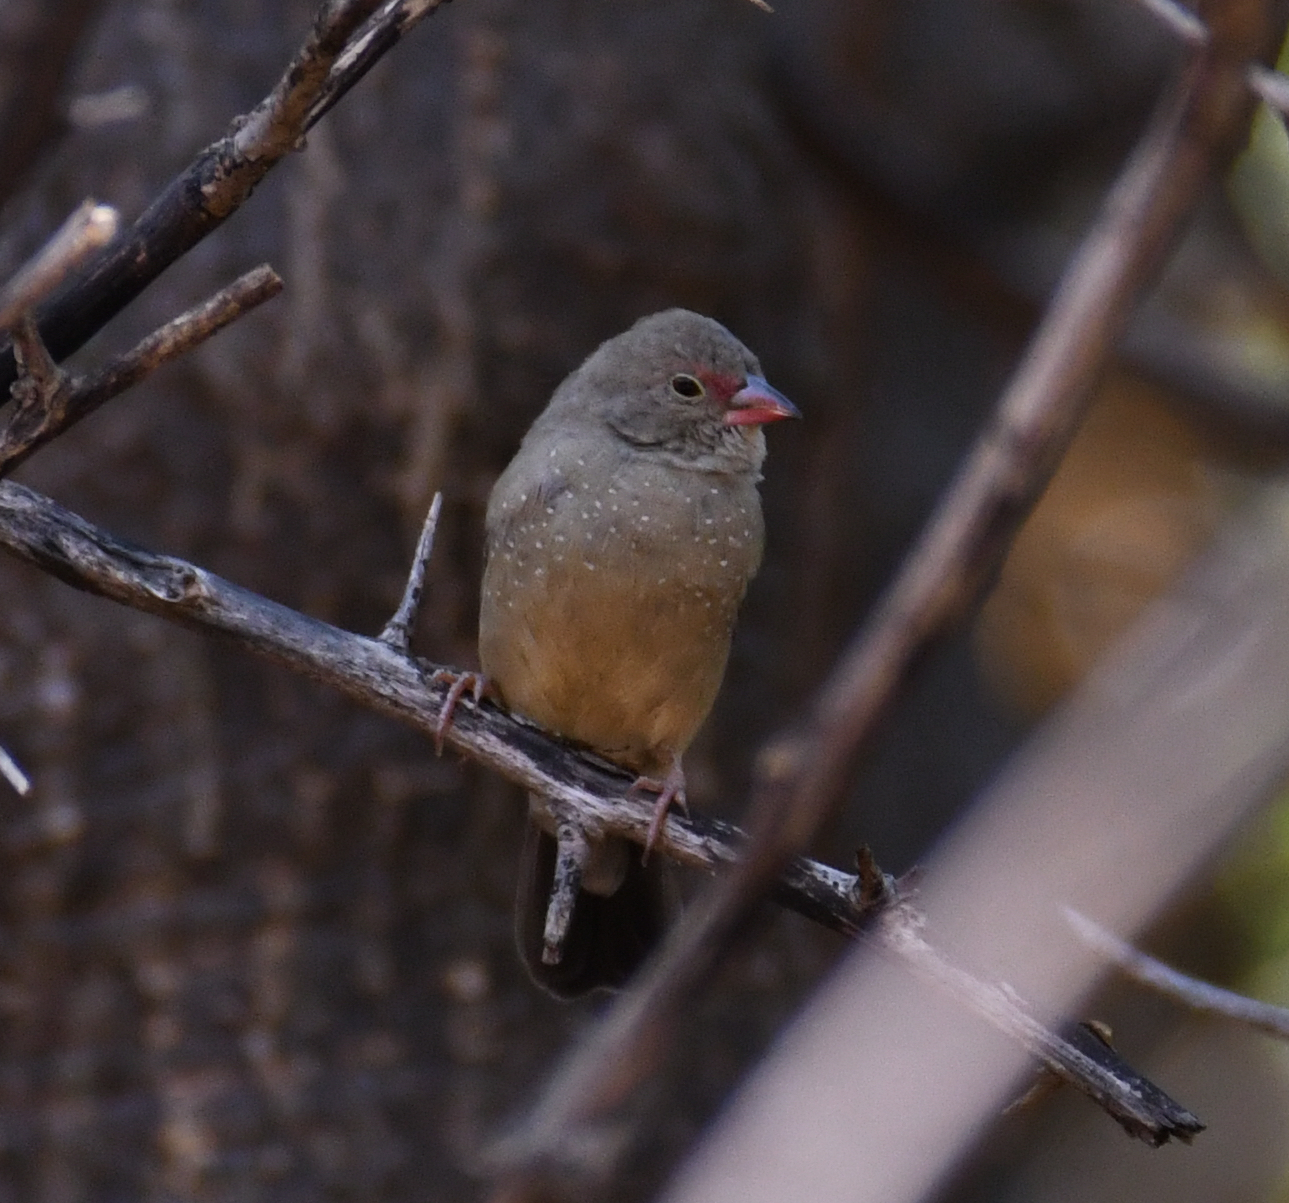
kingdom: Animalia
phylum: Chordata
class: Aves
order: Passeriformes
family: Estrildidae
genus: Lagonosticta
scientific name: Lagonosticta senegala
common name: Red-billed firefinch
